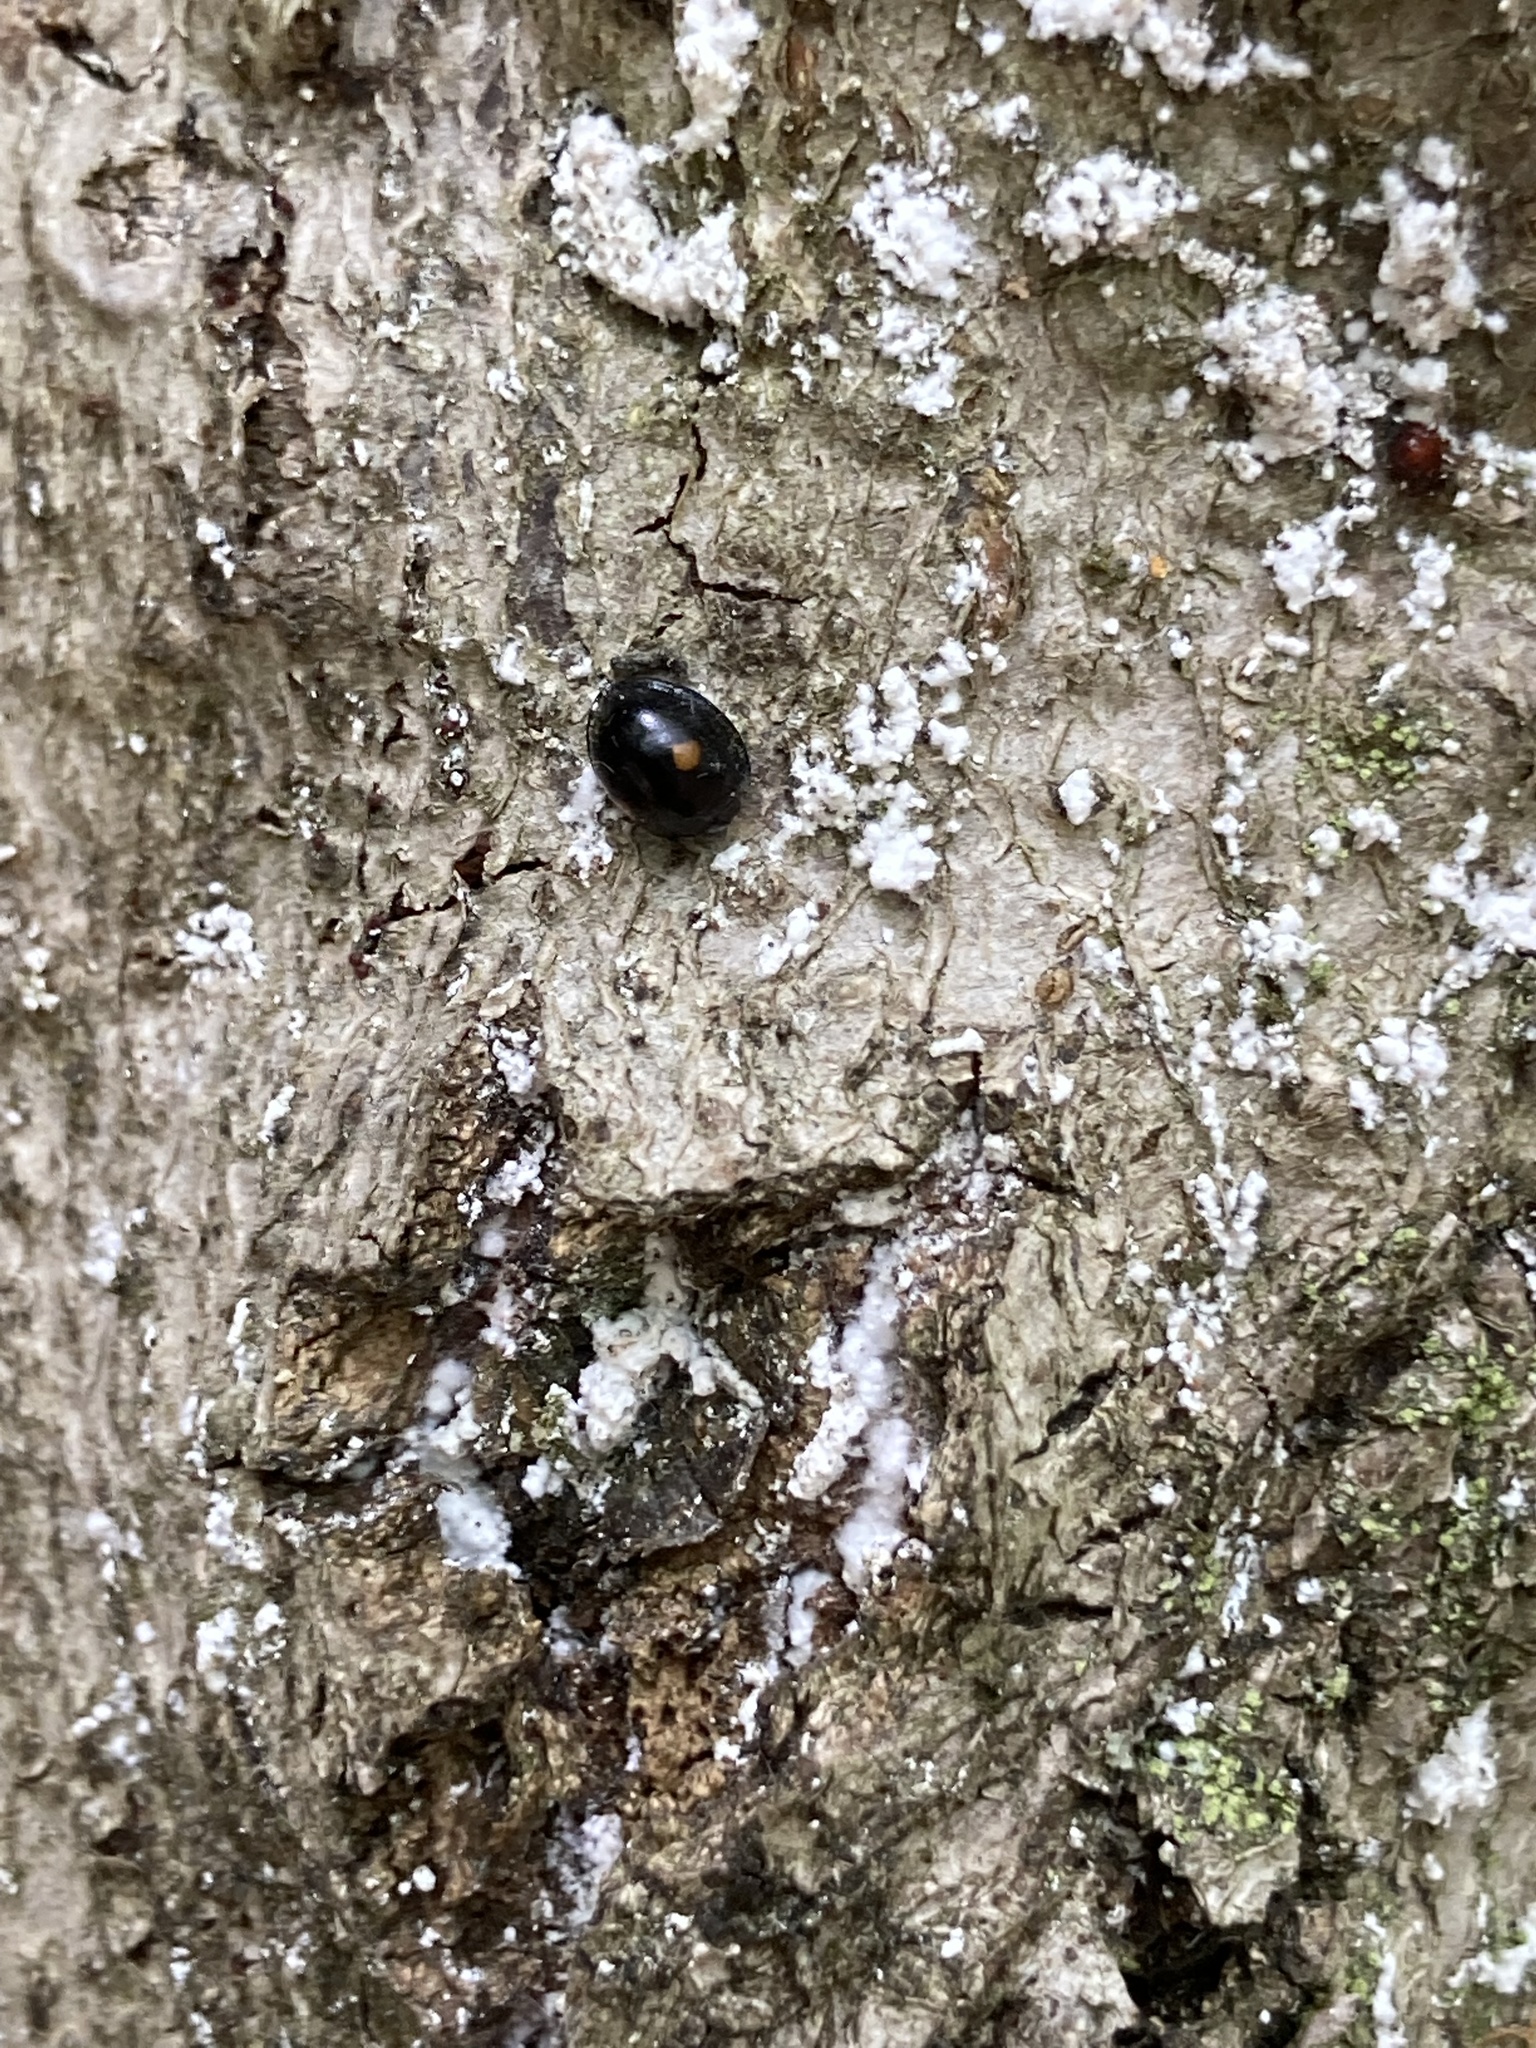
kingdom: Animalia
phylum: Arthropoda
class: Insecta
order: Coleoptera
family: Coccinellidae
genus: Chilocorus
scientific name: Chilocorus stigma
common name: Twicestabbed lady beetle
